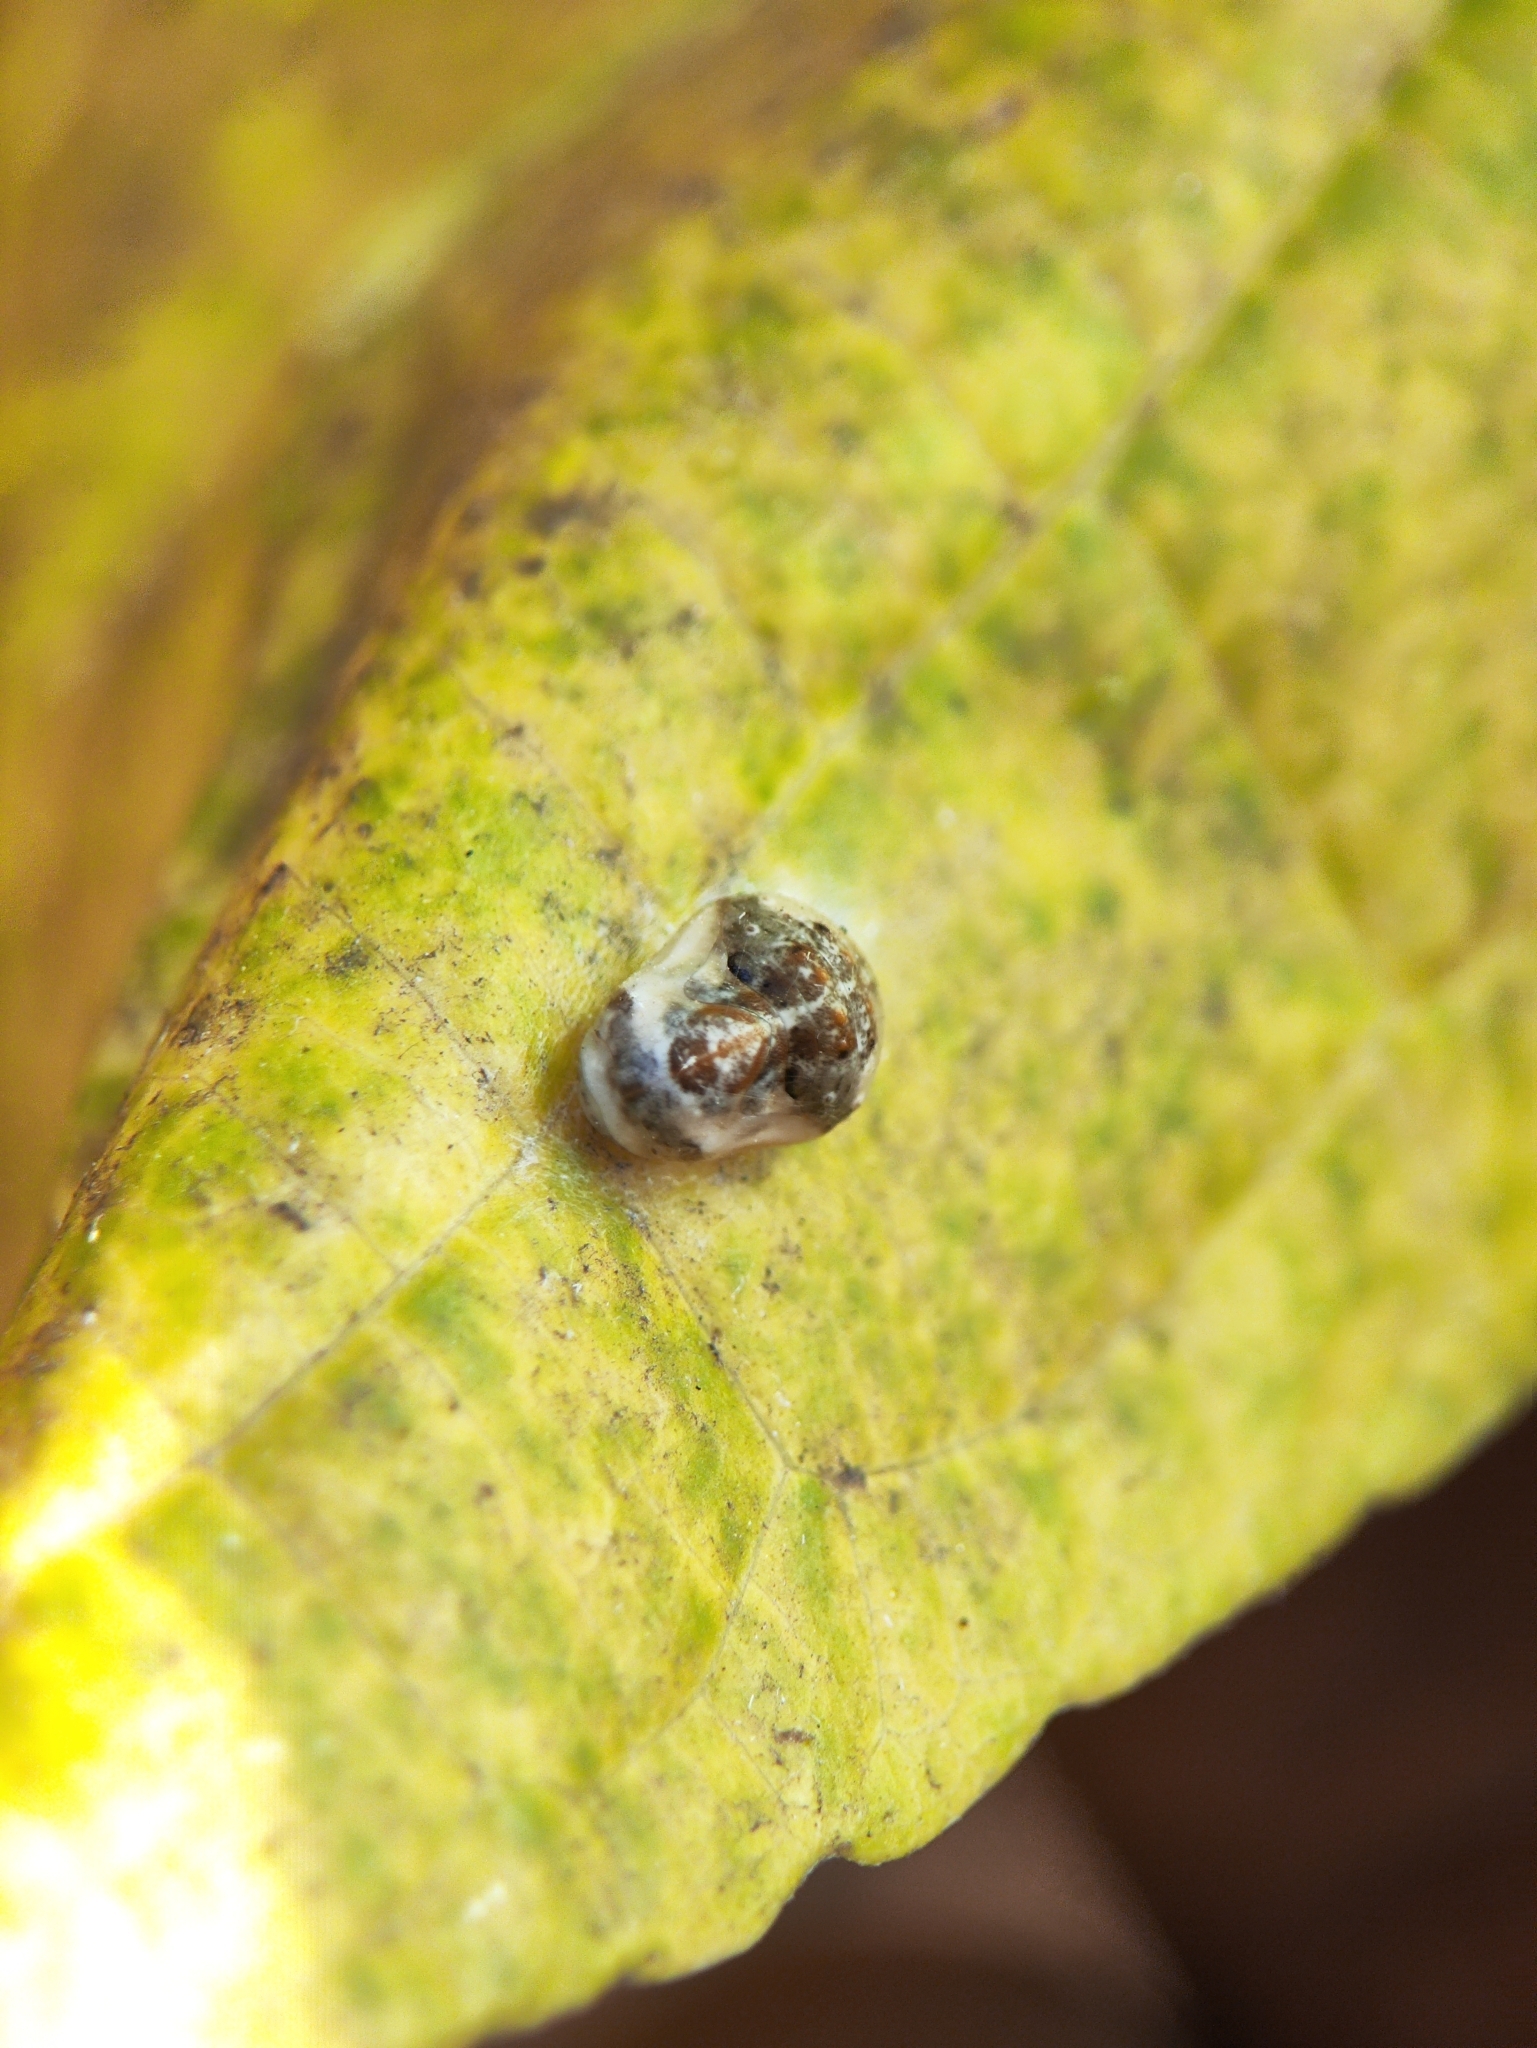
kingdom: Animalia
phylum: Arthropoda
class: Insecta
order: Lepidoptera
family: Lycaenidae
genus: Spalgis
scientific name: Spalgis epius
